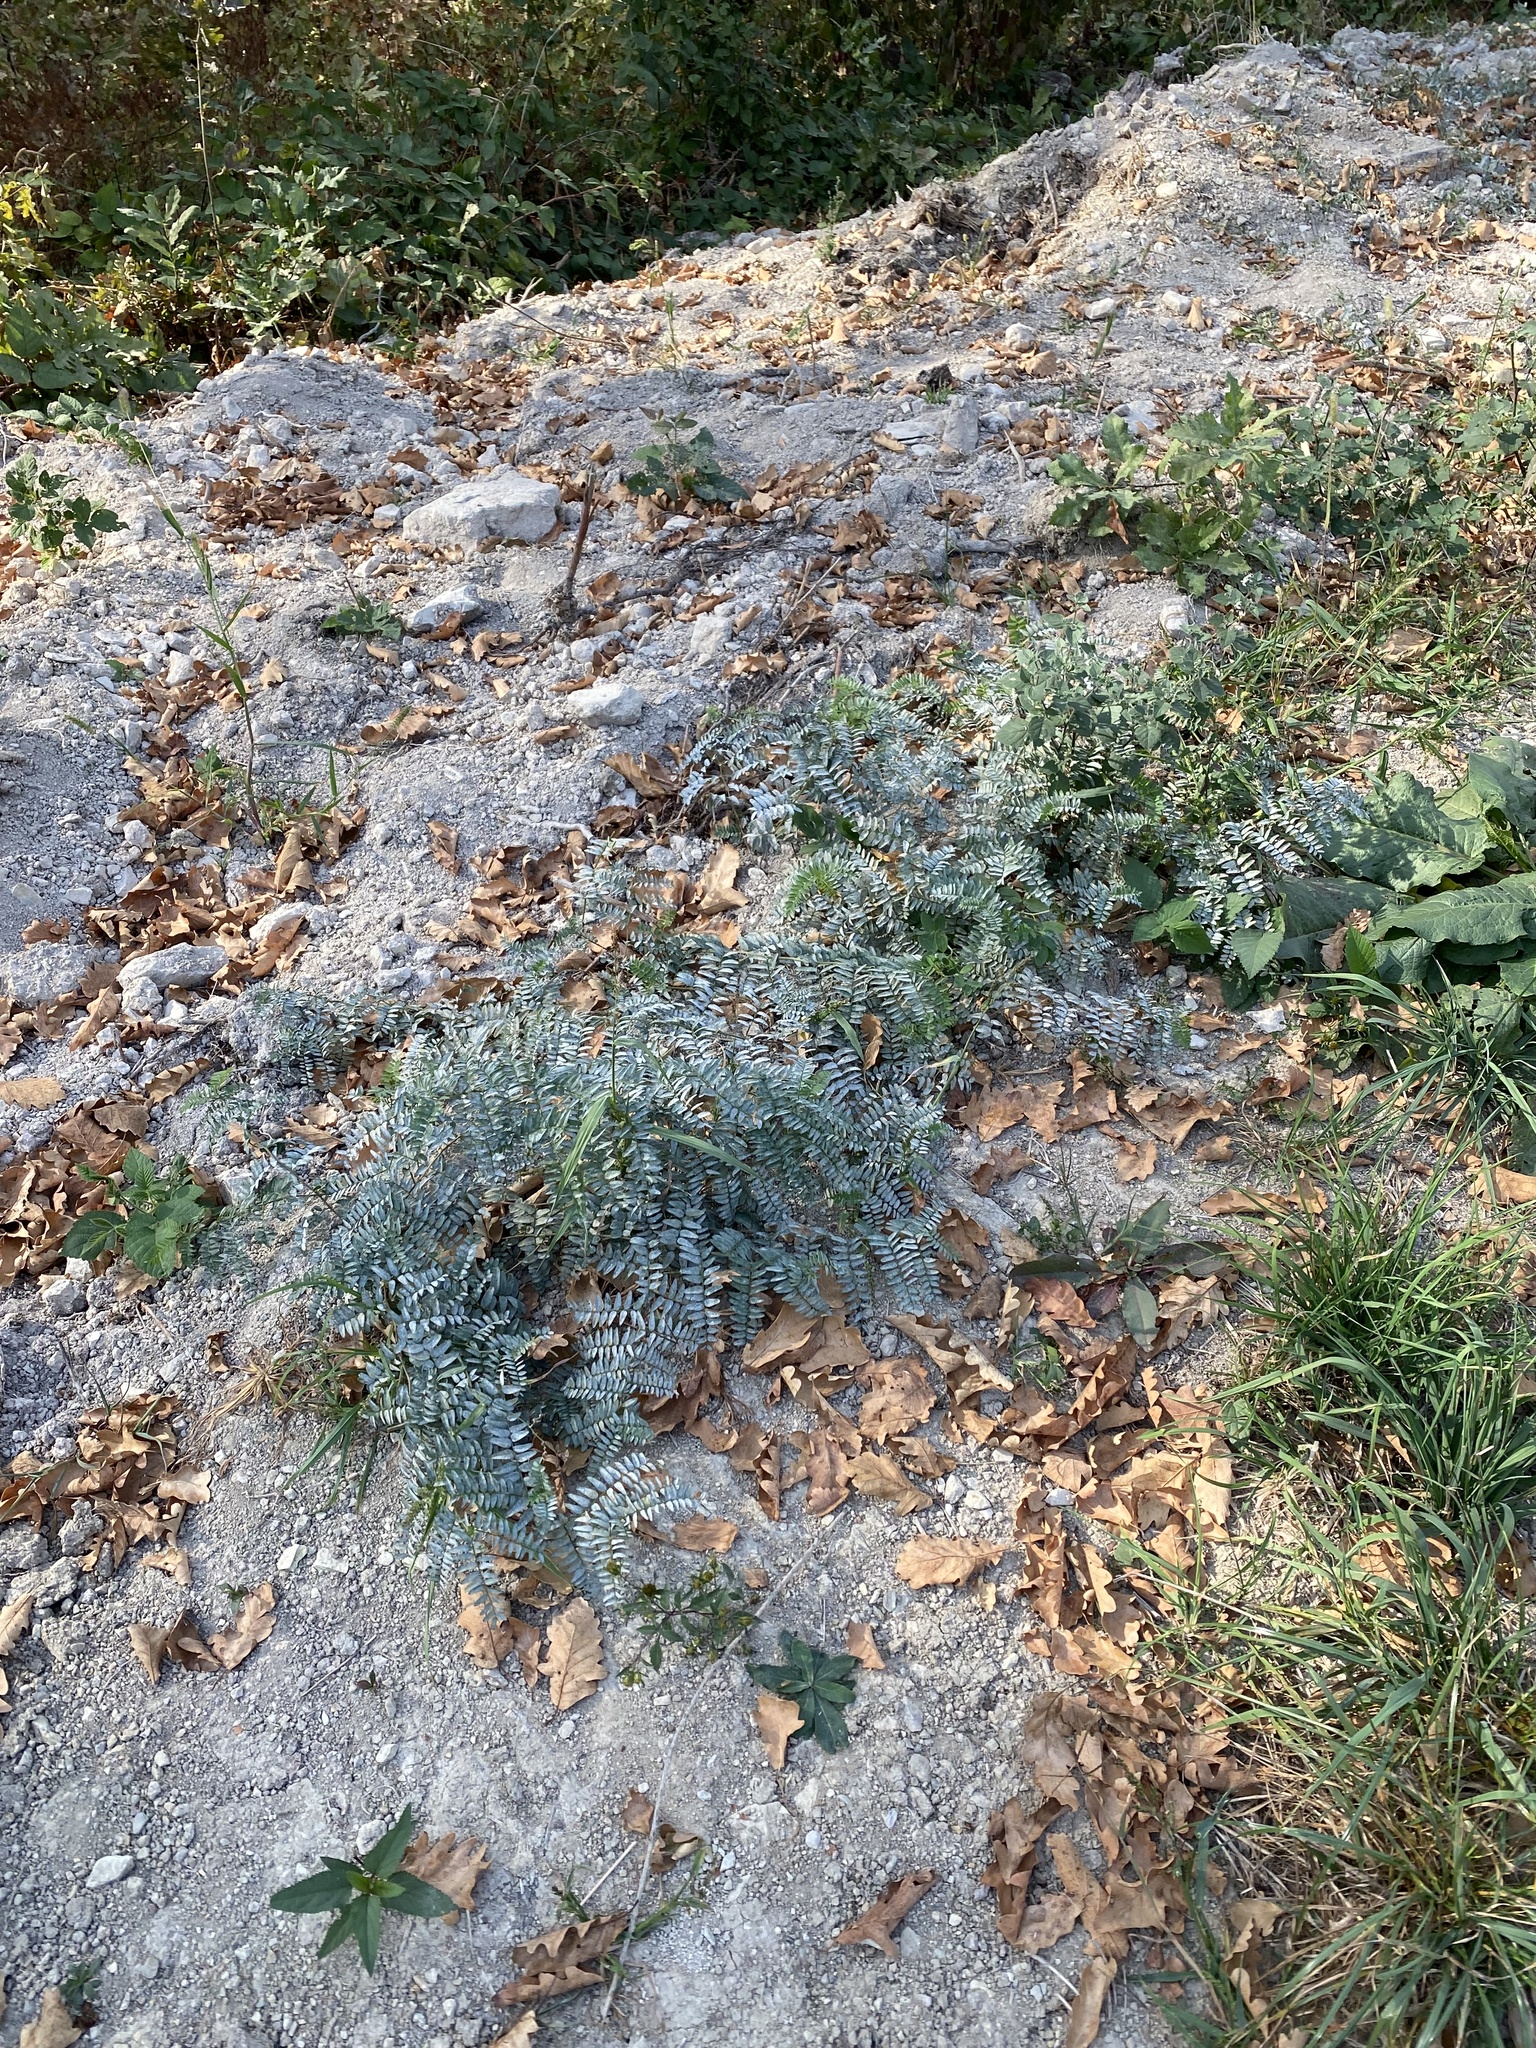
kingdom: Plantae
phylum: Tracheophyta
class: Magnoliopsida
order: Fabales
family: Fabaceae
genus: Vicia
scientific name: Vicia cassubica
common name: Danzig vetch
